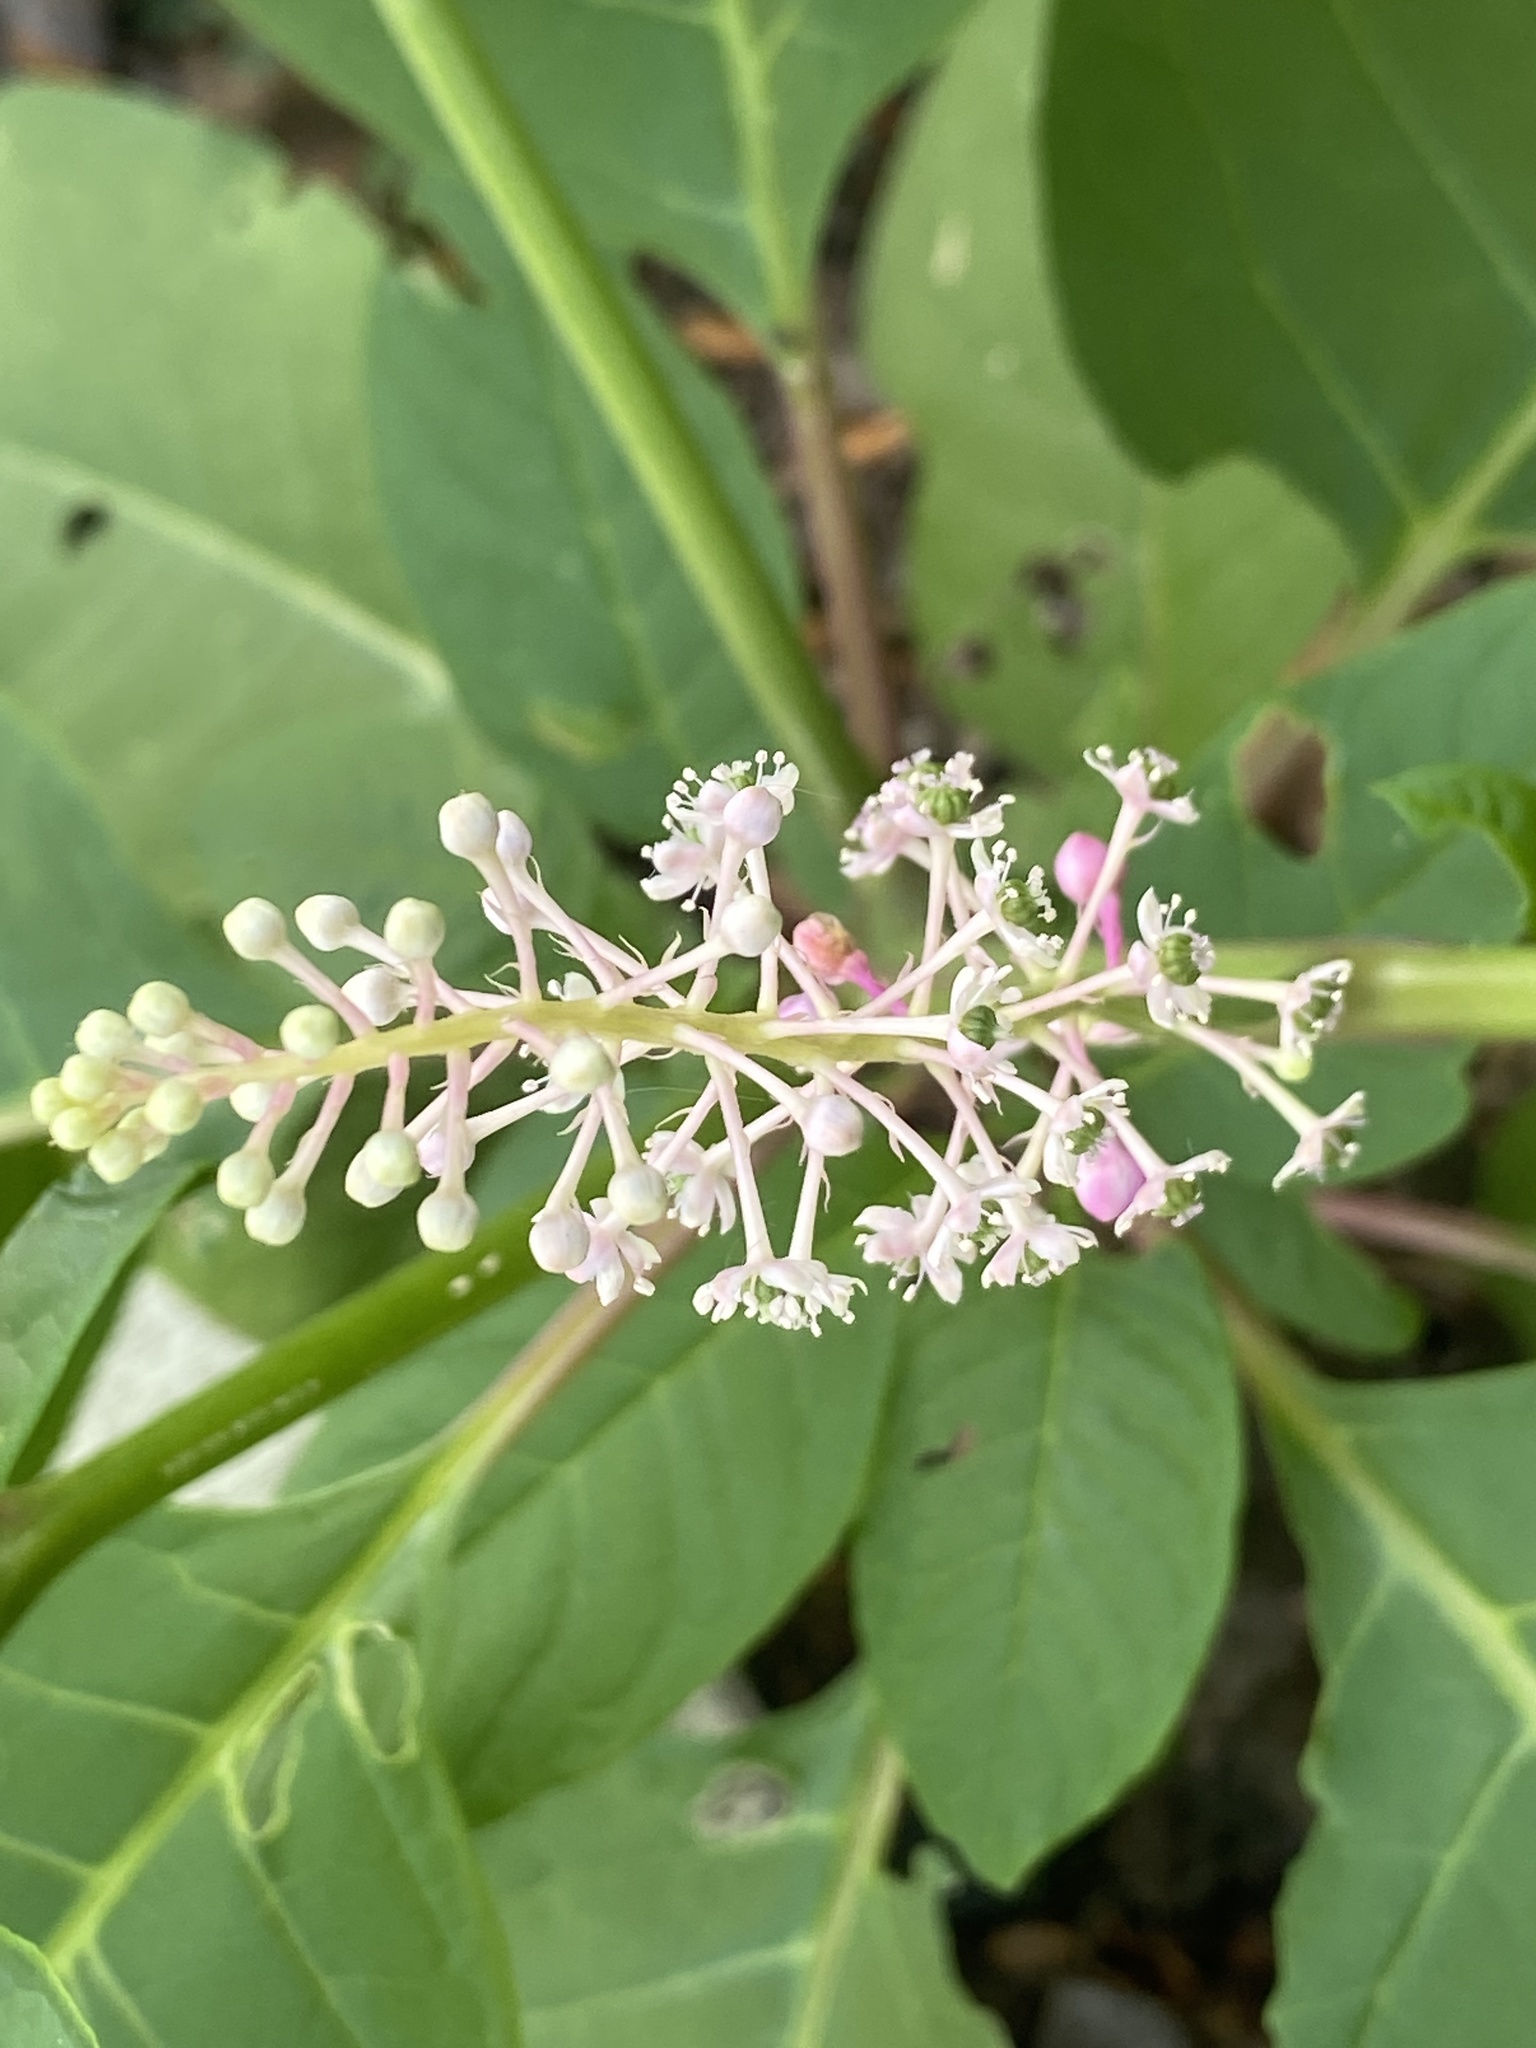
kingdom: Plantae
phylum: Tracheophyta
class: Magnoliopsida
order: Caryophyllales
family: Phytolaccaceae
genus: Phytolacca
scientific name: Phytolacca americana
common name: American pokeweed
